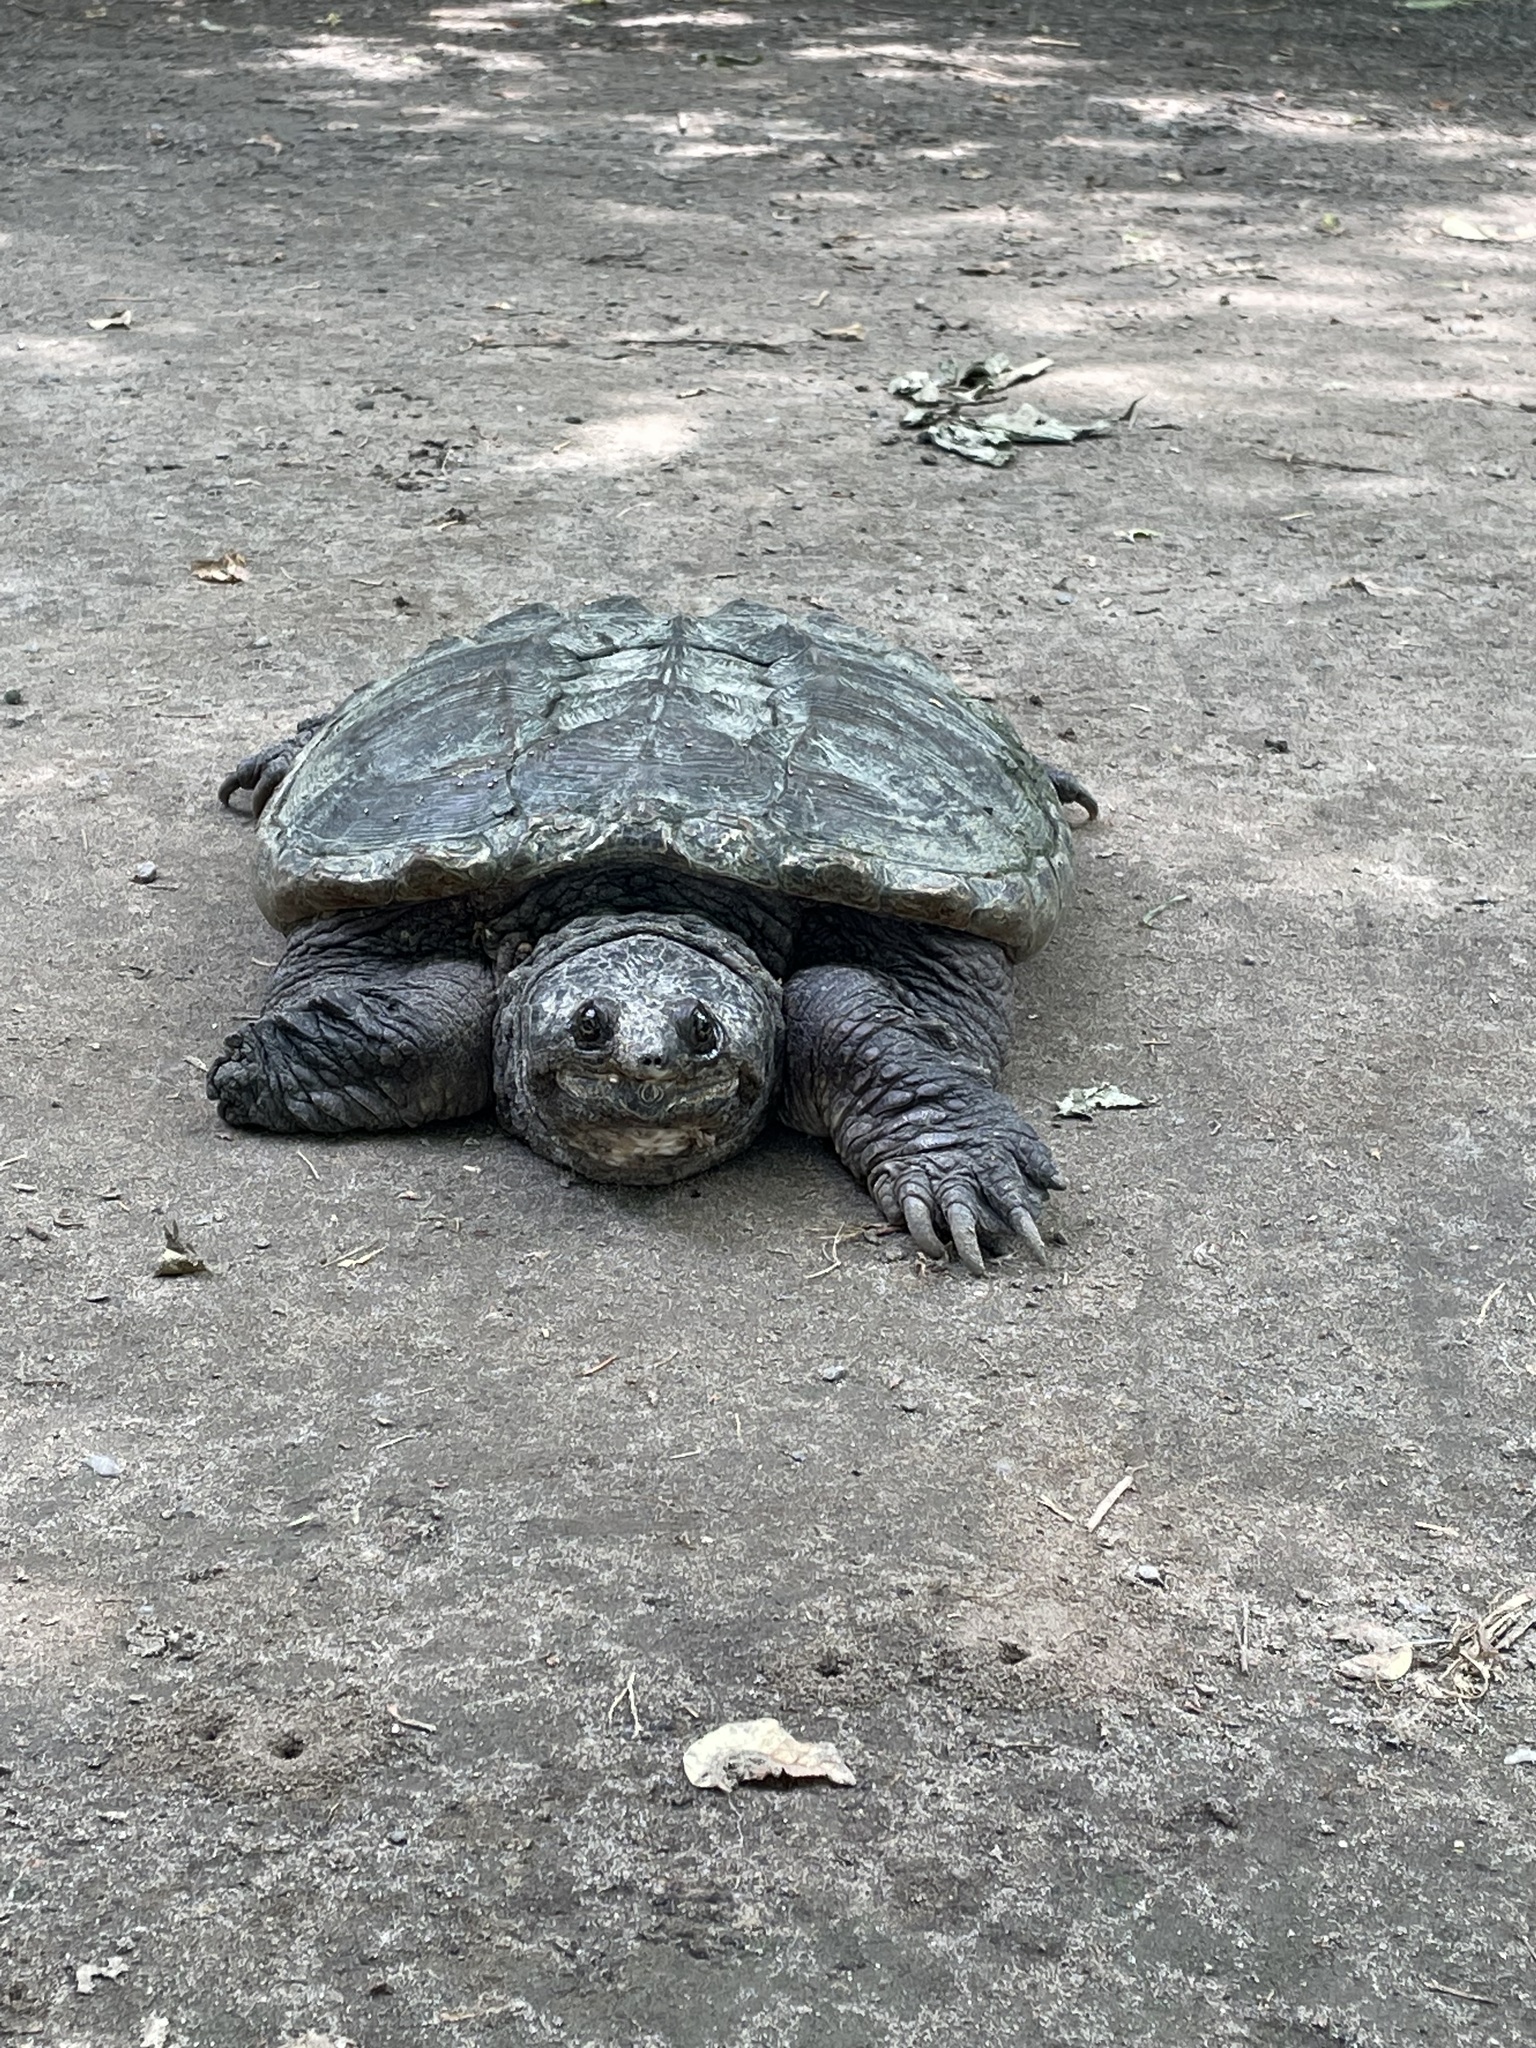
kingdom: Animalia
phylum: Chordata
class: Testudines
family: Chelydridae
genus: Chelydra
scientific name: Chelydra serpentina
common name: Common snapping turtle
